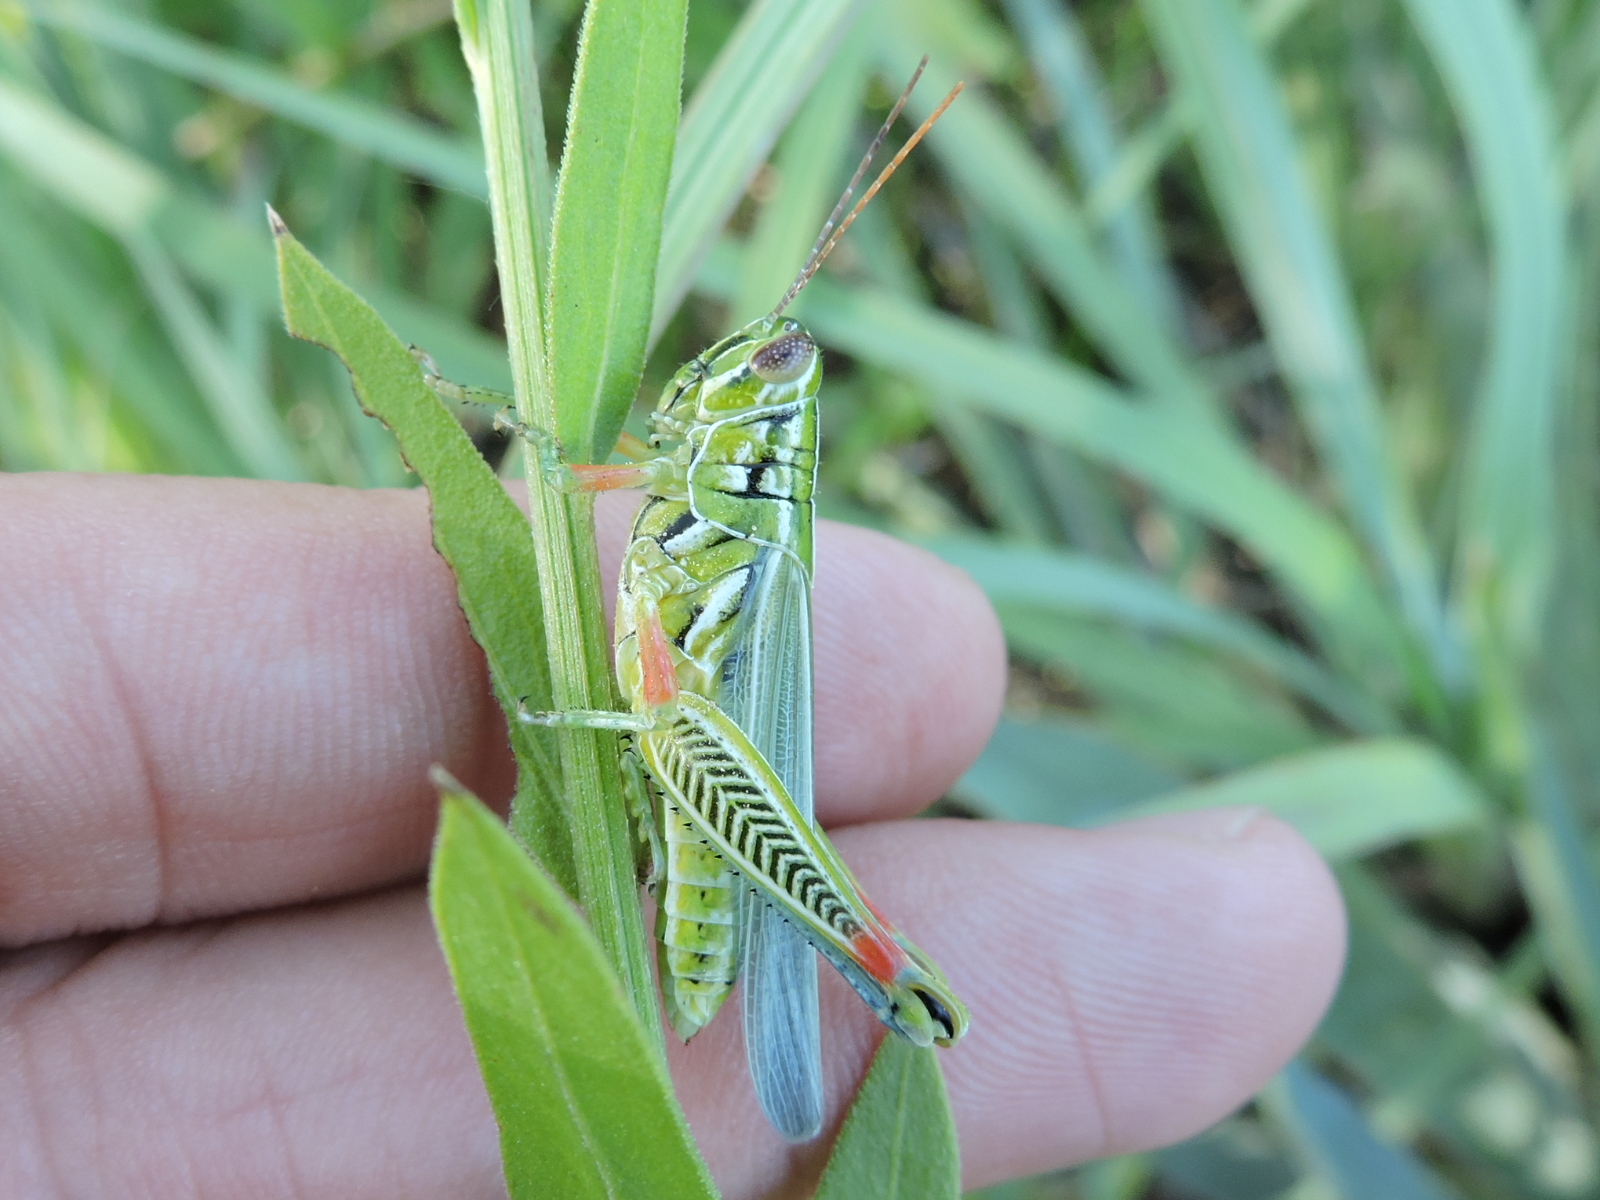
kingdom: Animalia
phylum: Arthropoda
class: Insecta
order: Orthoptera
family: Acrididae
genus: Hesperotettix
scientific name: Hesperotettix viridis
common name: Meadow purple-striped grasshopper
